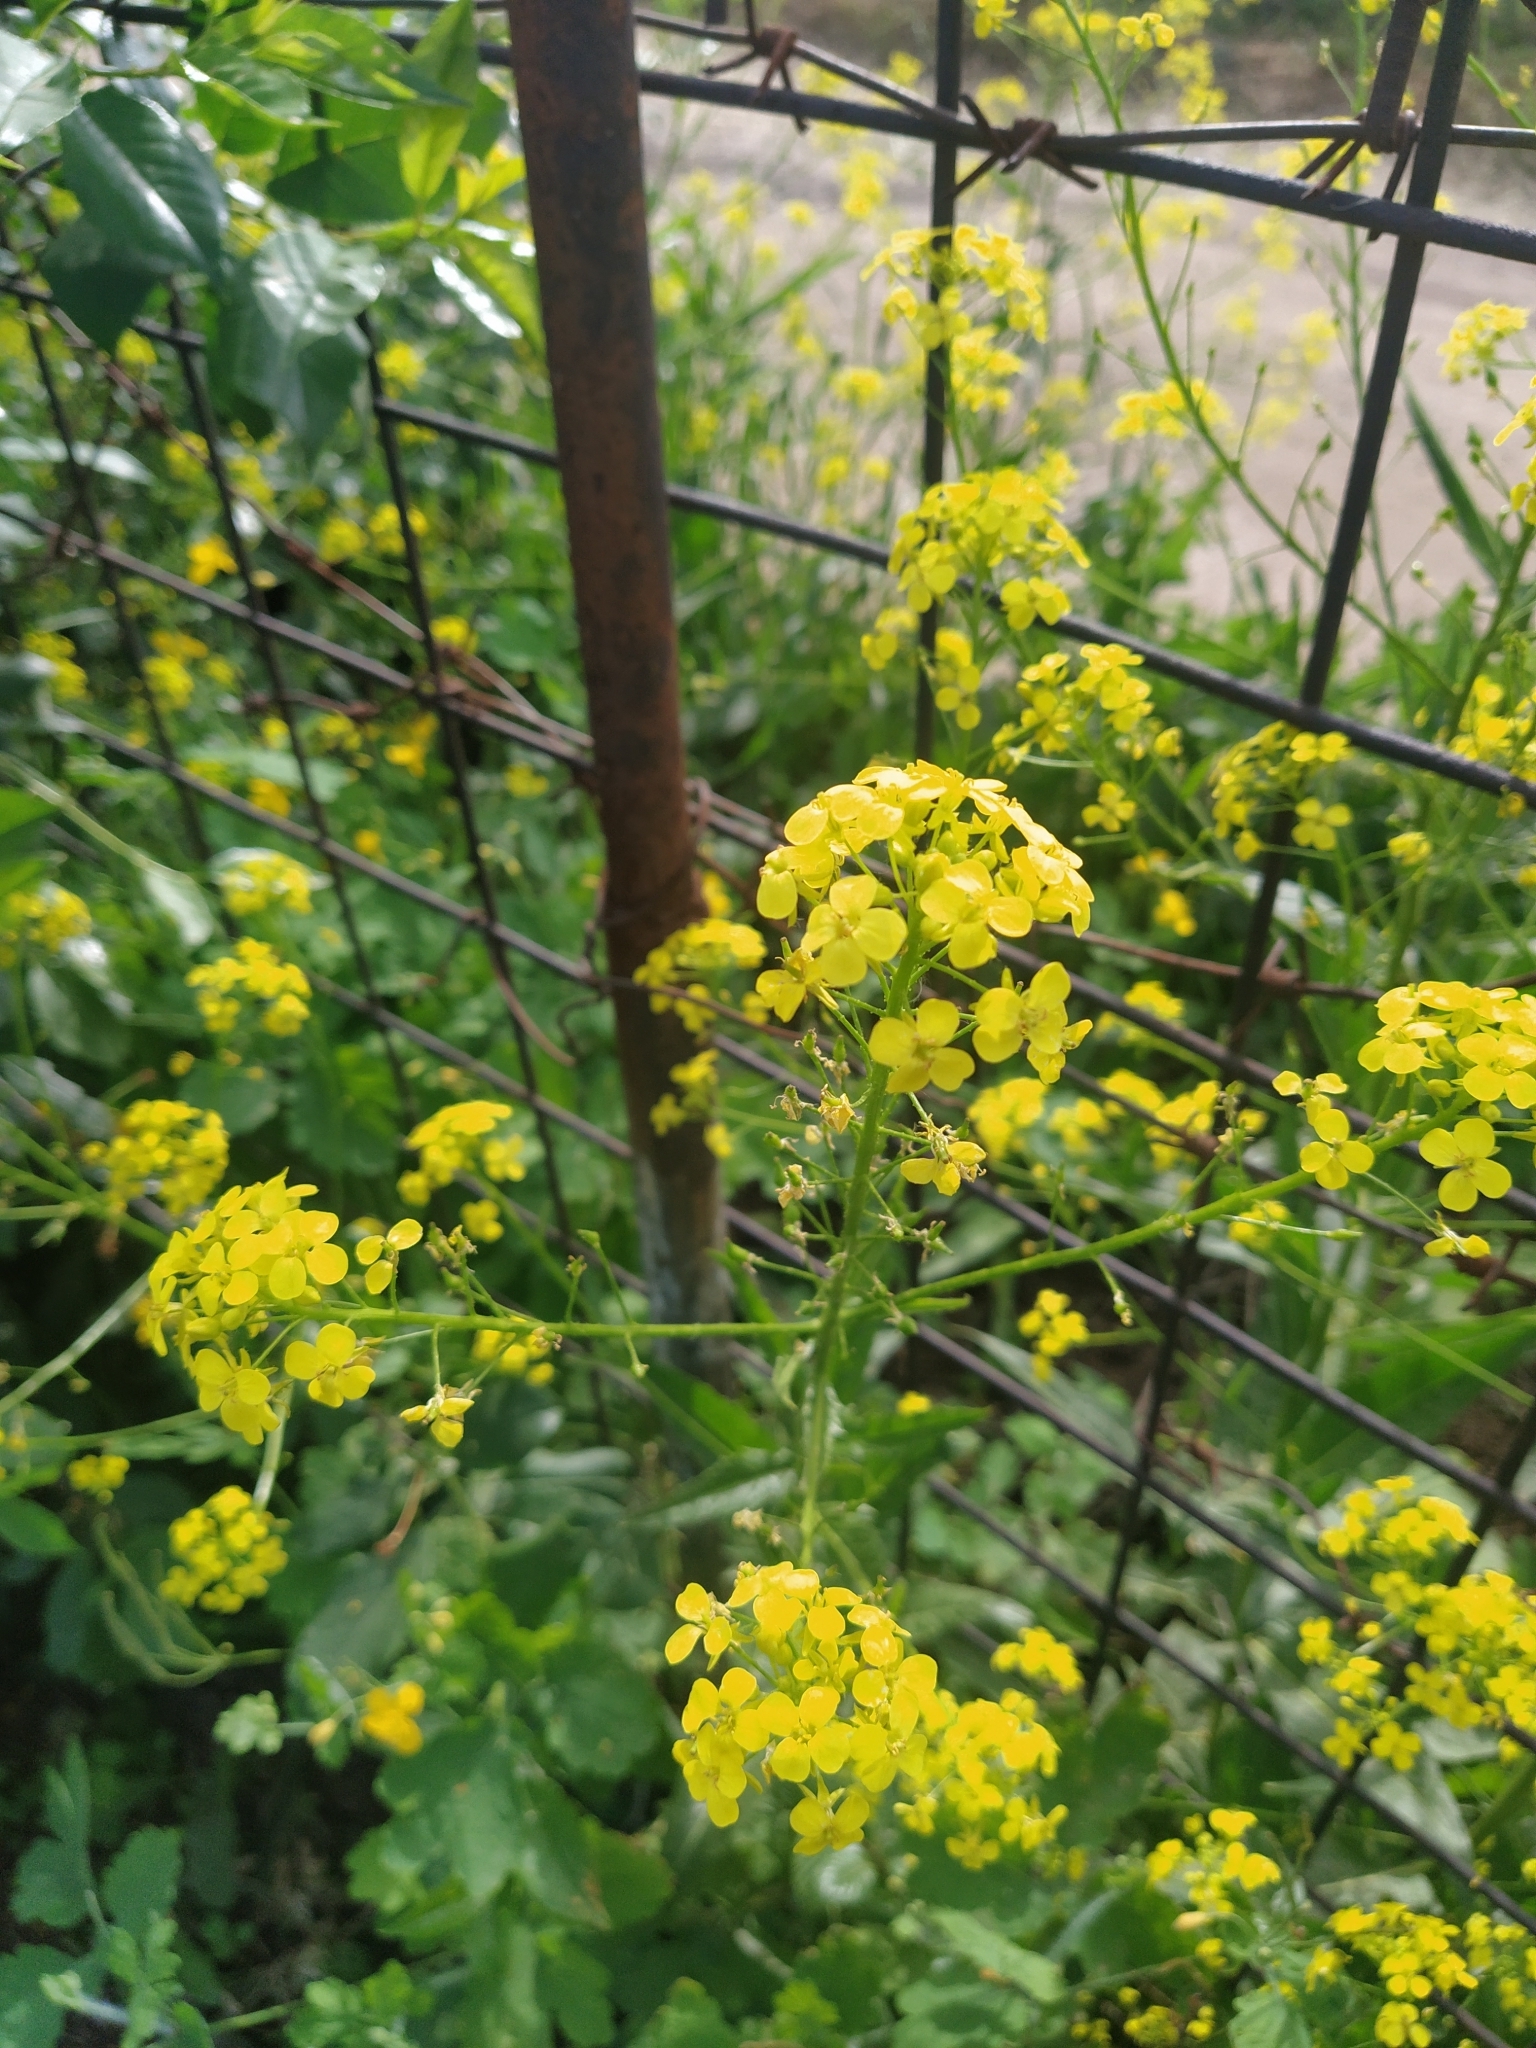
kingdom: Plantae
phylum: Tracheophyta
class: Magnoliopsida
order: Brassicales
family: Brassicaceae
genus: Bunias
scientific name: Bunias orientalis
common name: Warty-cabbage
